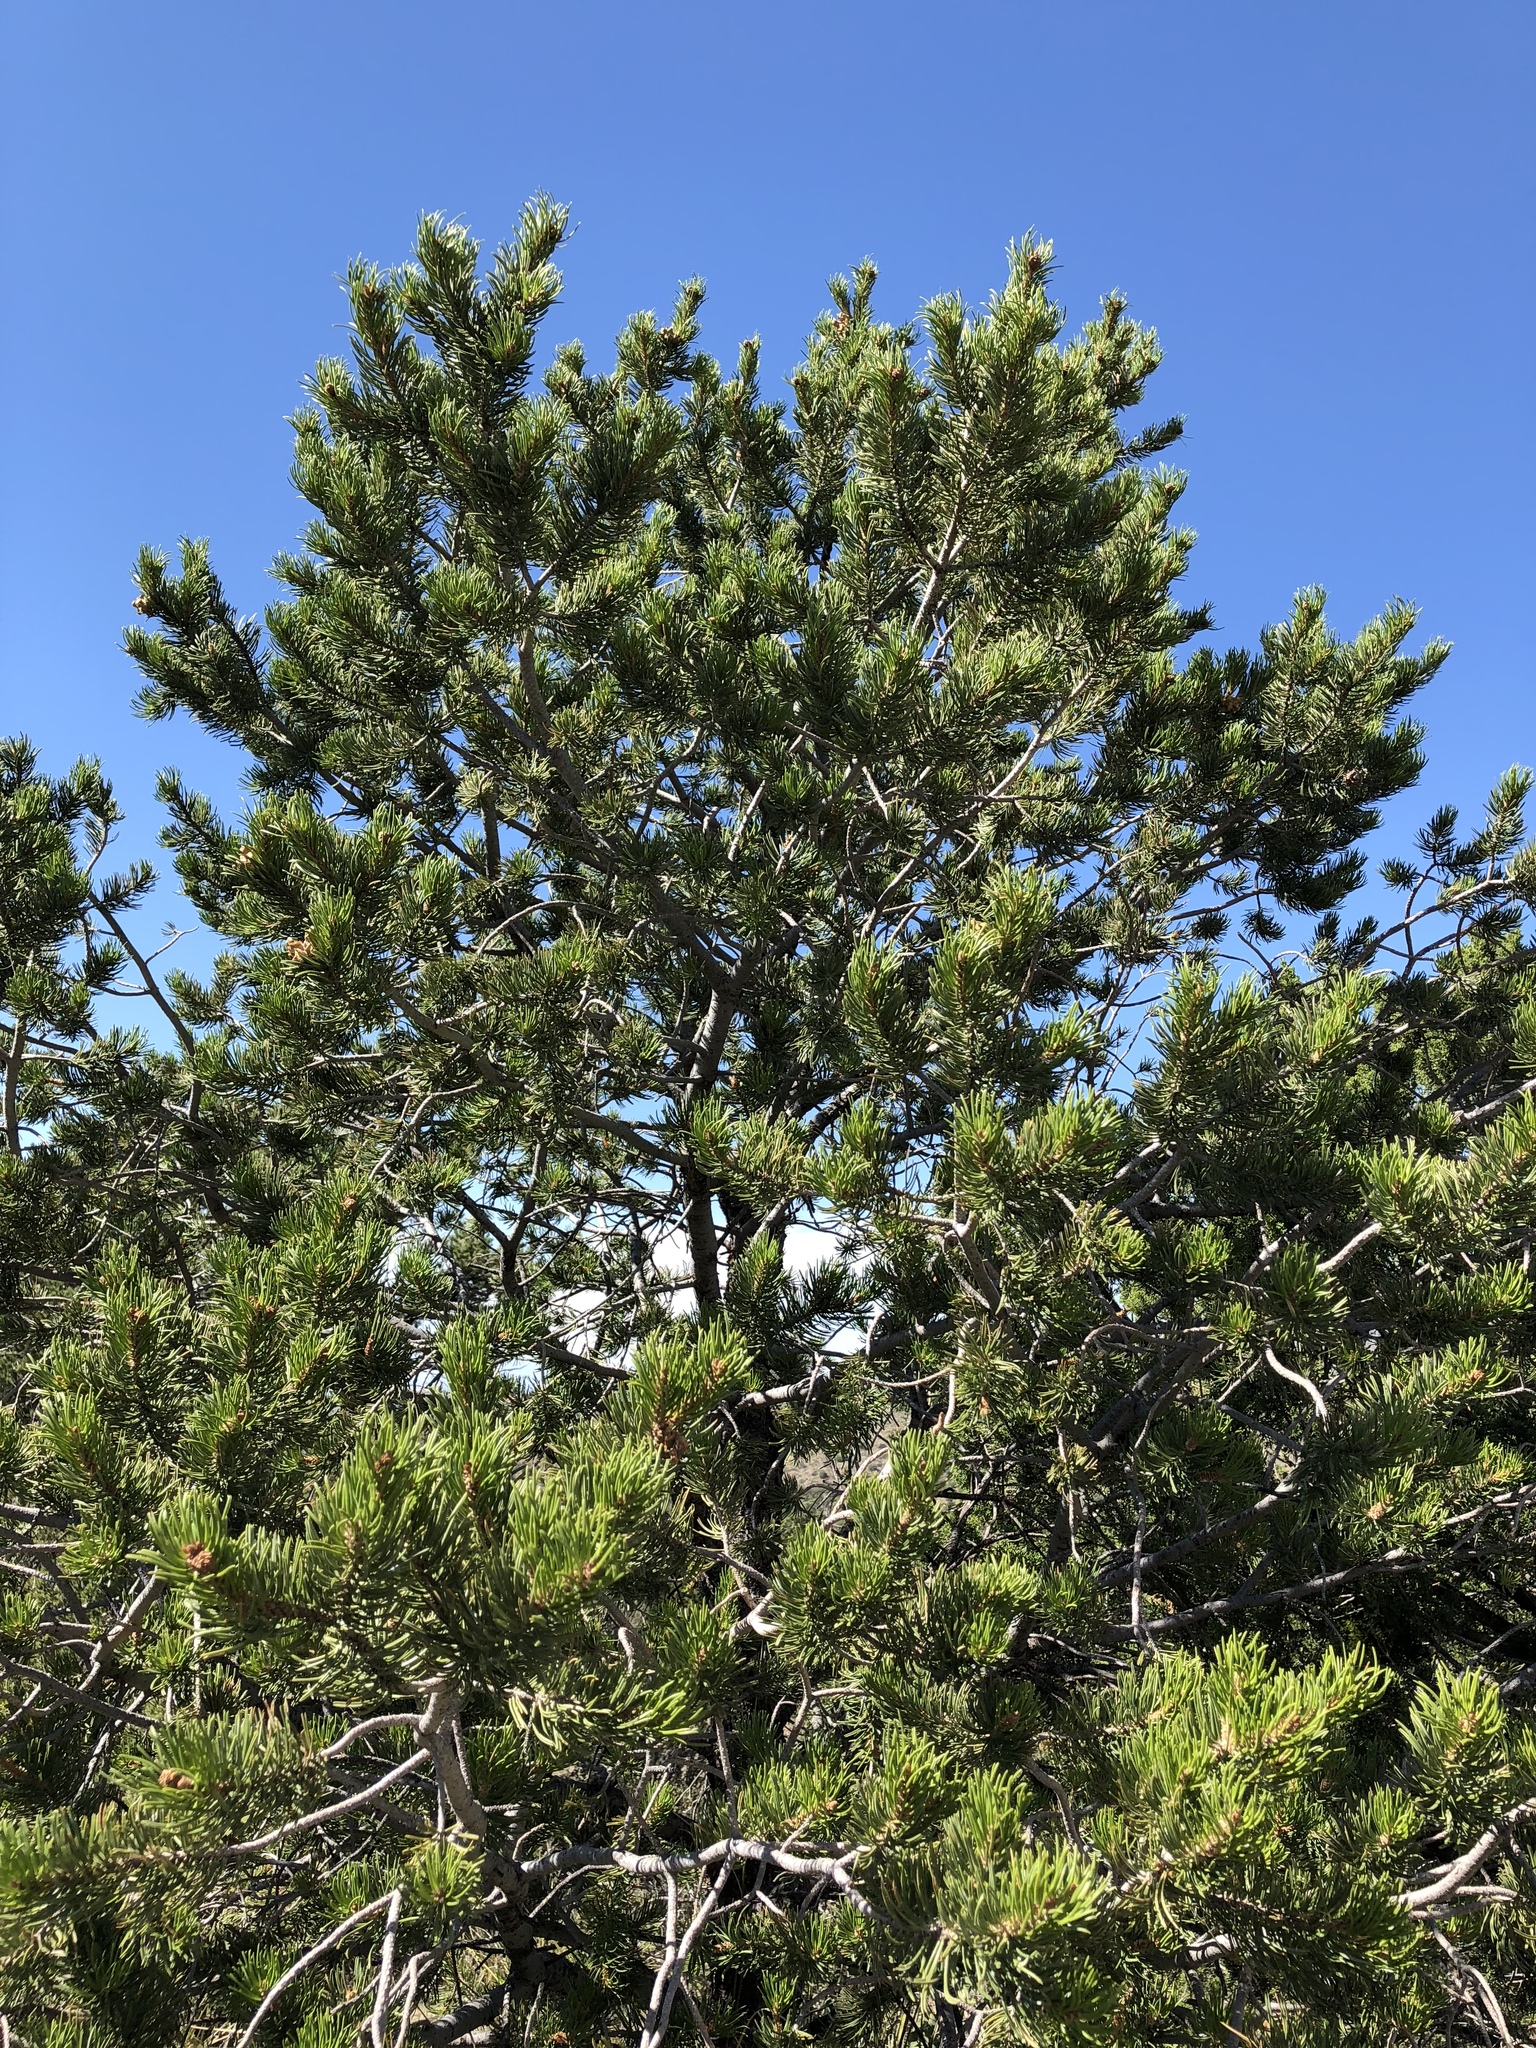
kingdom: Plantae
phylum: Tracheophyta
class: Pinopsida
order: Pinales
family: Pinaceae
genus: Pinus
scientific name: Pinus edulis
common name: Colorado pinyon
